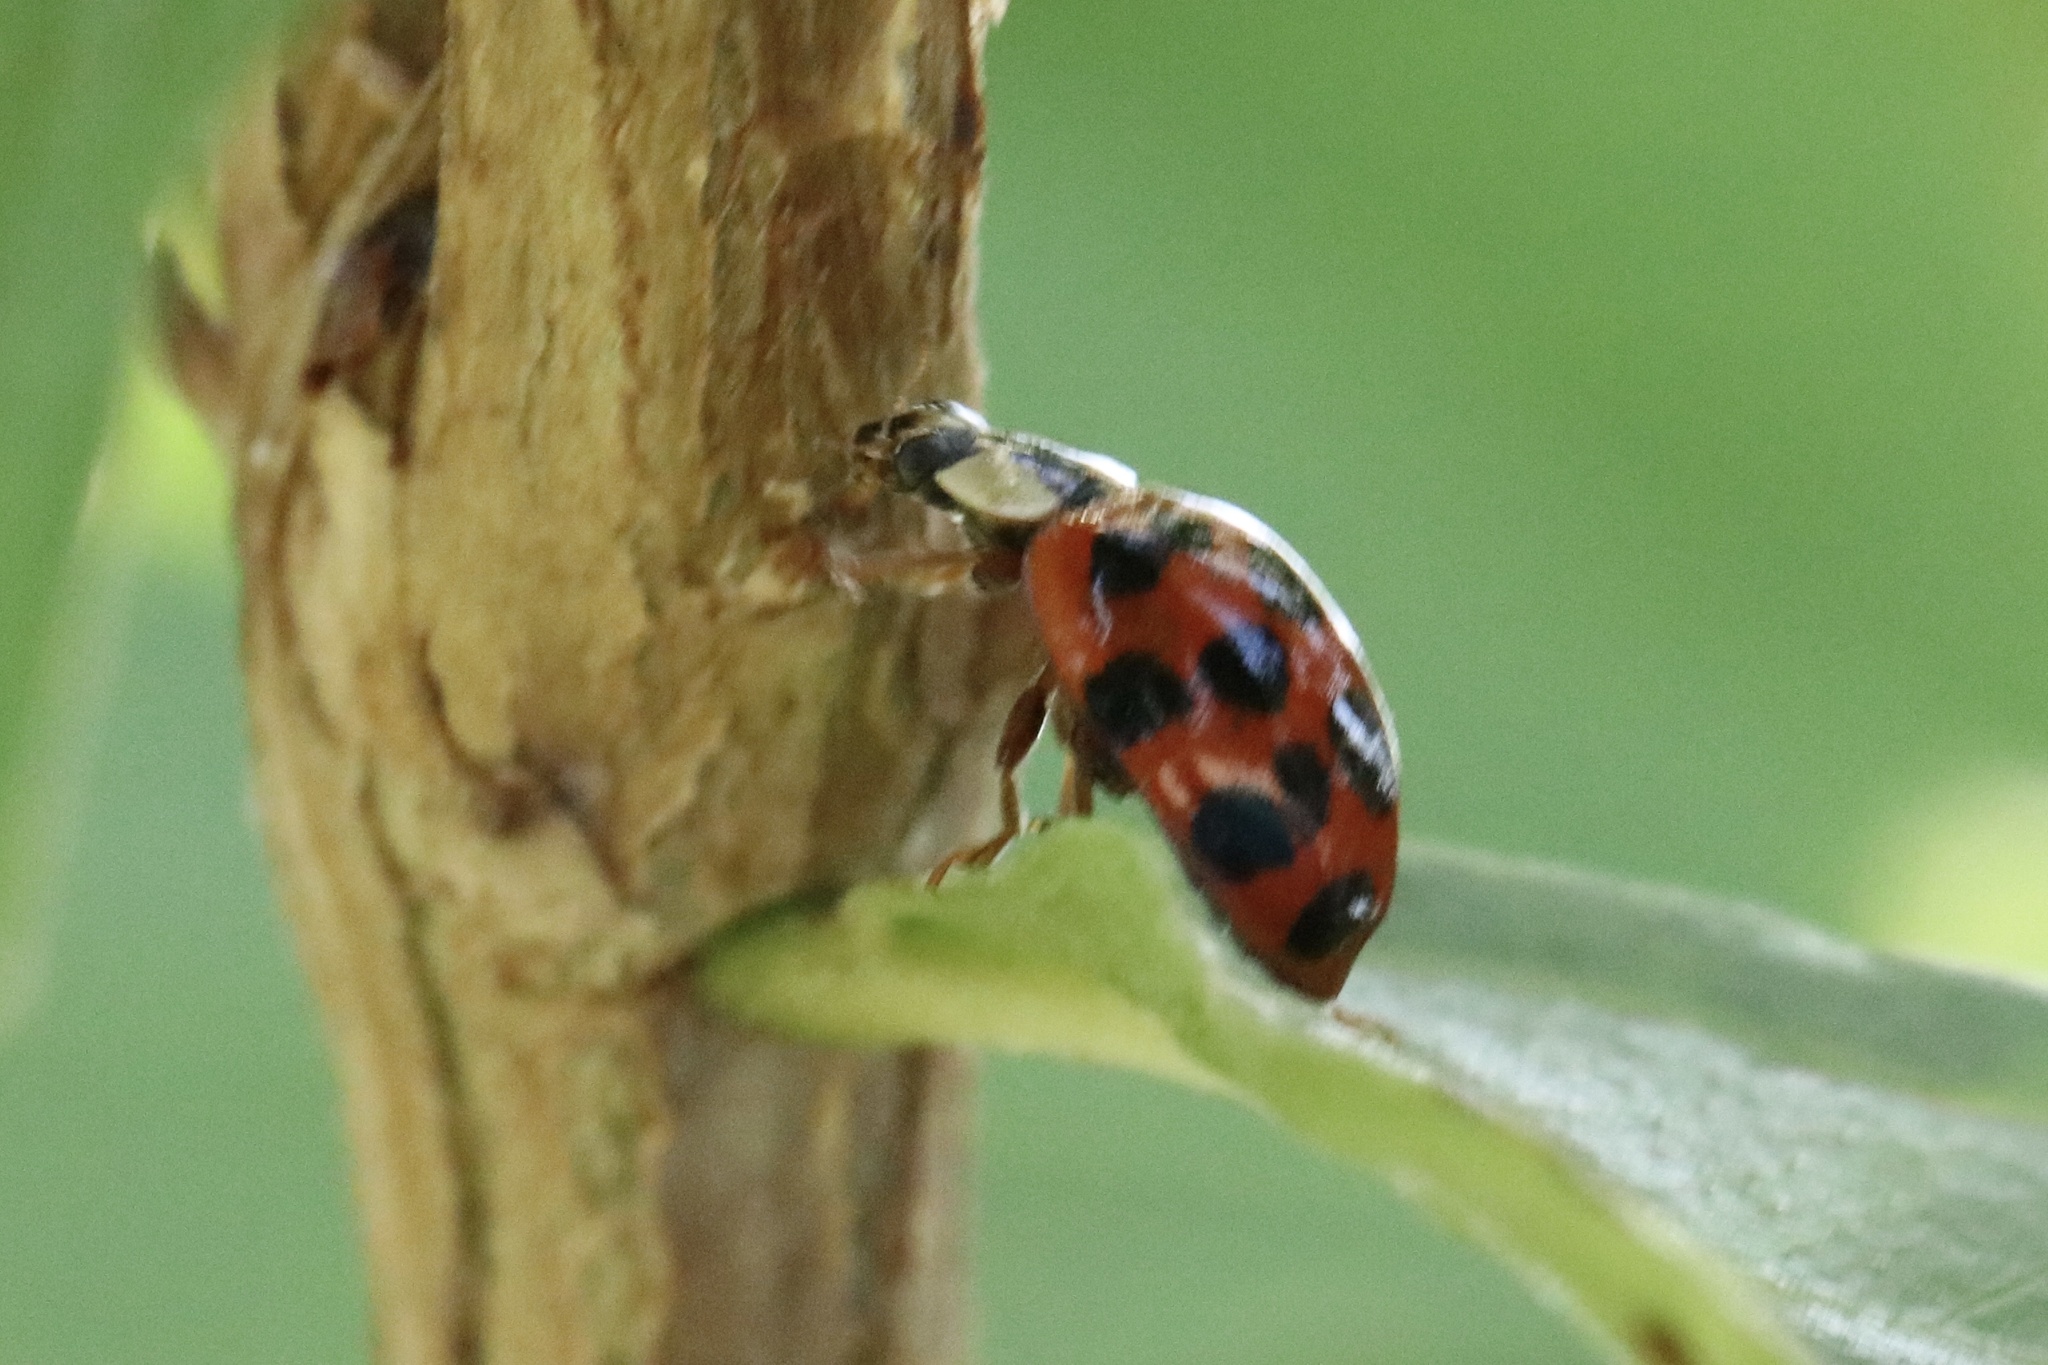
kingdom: Animalia
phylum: Arthropoda
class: Insecta
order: Coleoptera
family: Coccinellidae
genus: Harmonia
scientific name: Harmonia axyridis
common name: Harlequin ladybird
